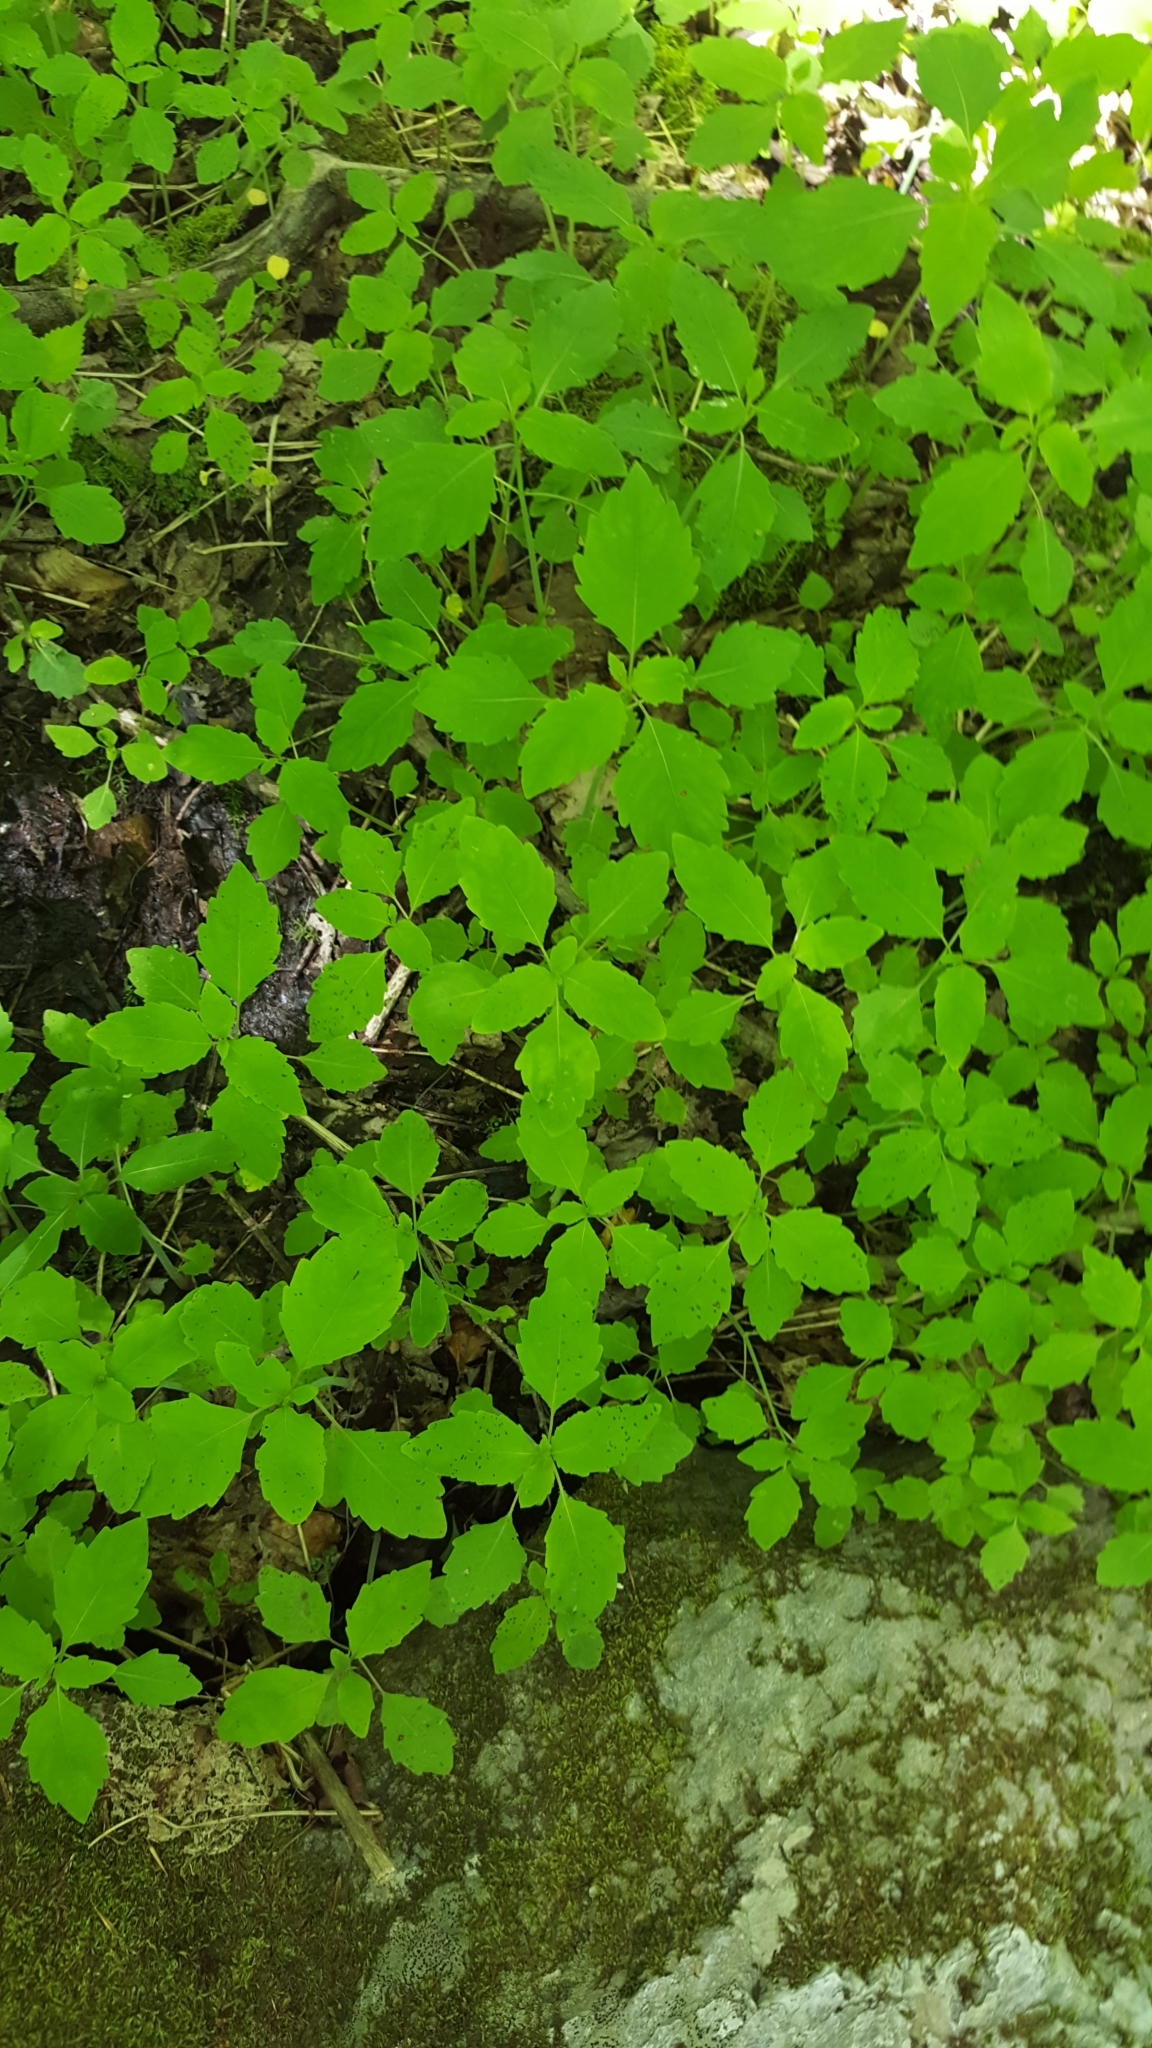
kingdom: Plantae
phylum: Tracheophyta
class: Magnoliopsida
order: Ericales
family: Balsaminaceae
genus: Impatiens
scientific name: Impatiens capensis
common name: Orange balsam
